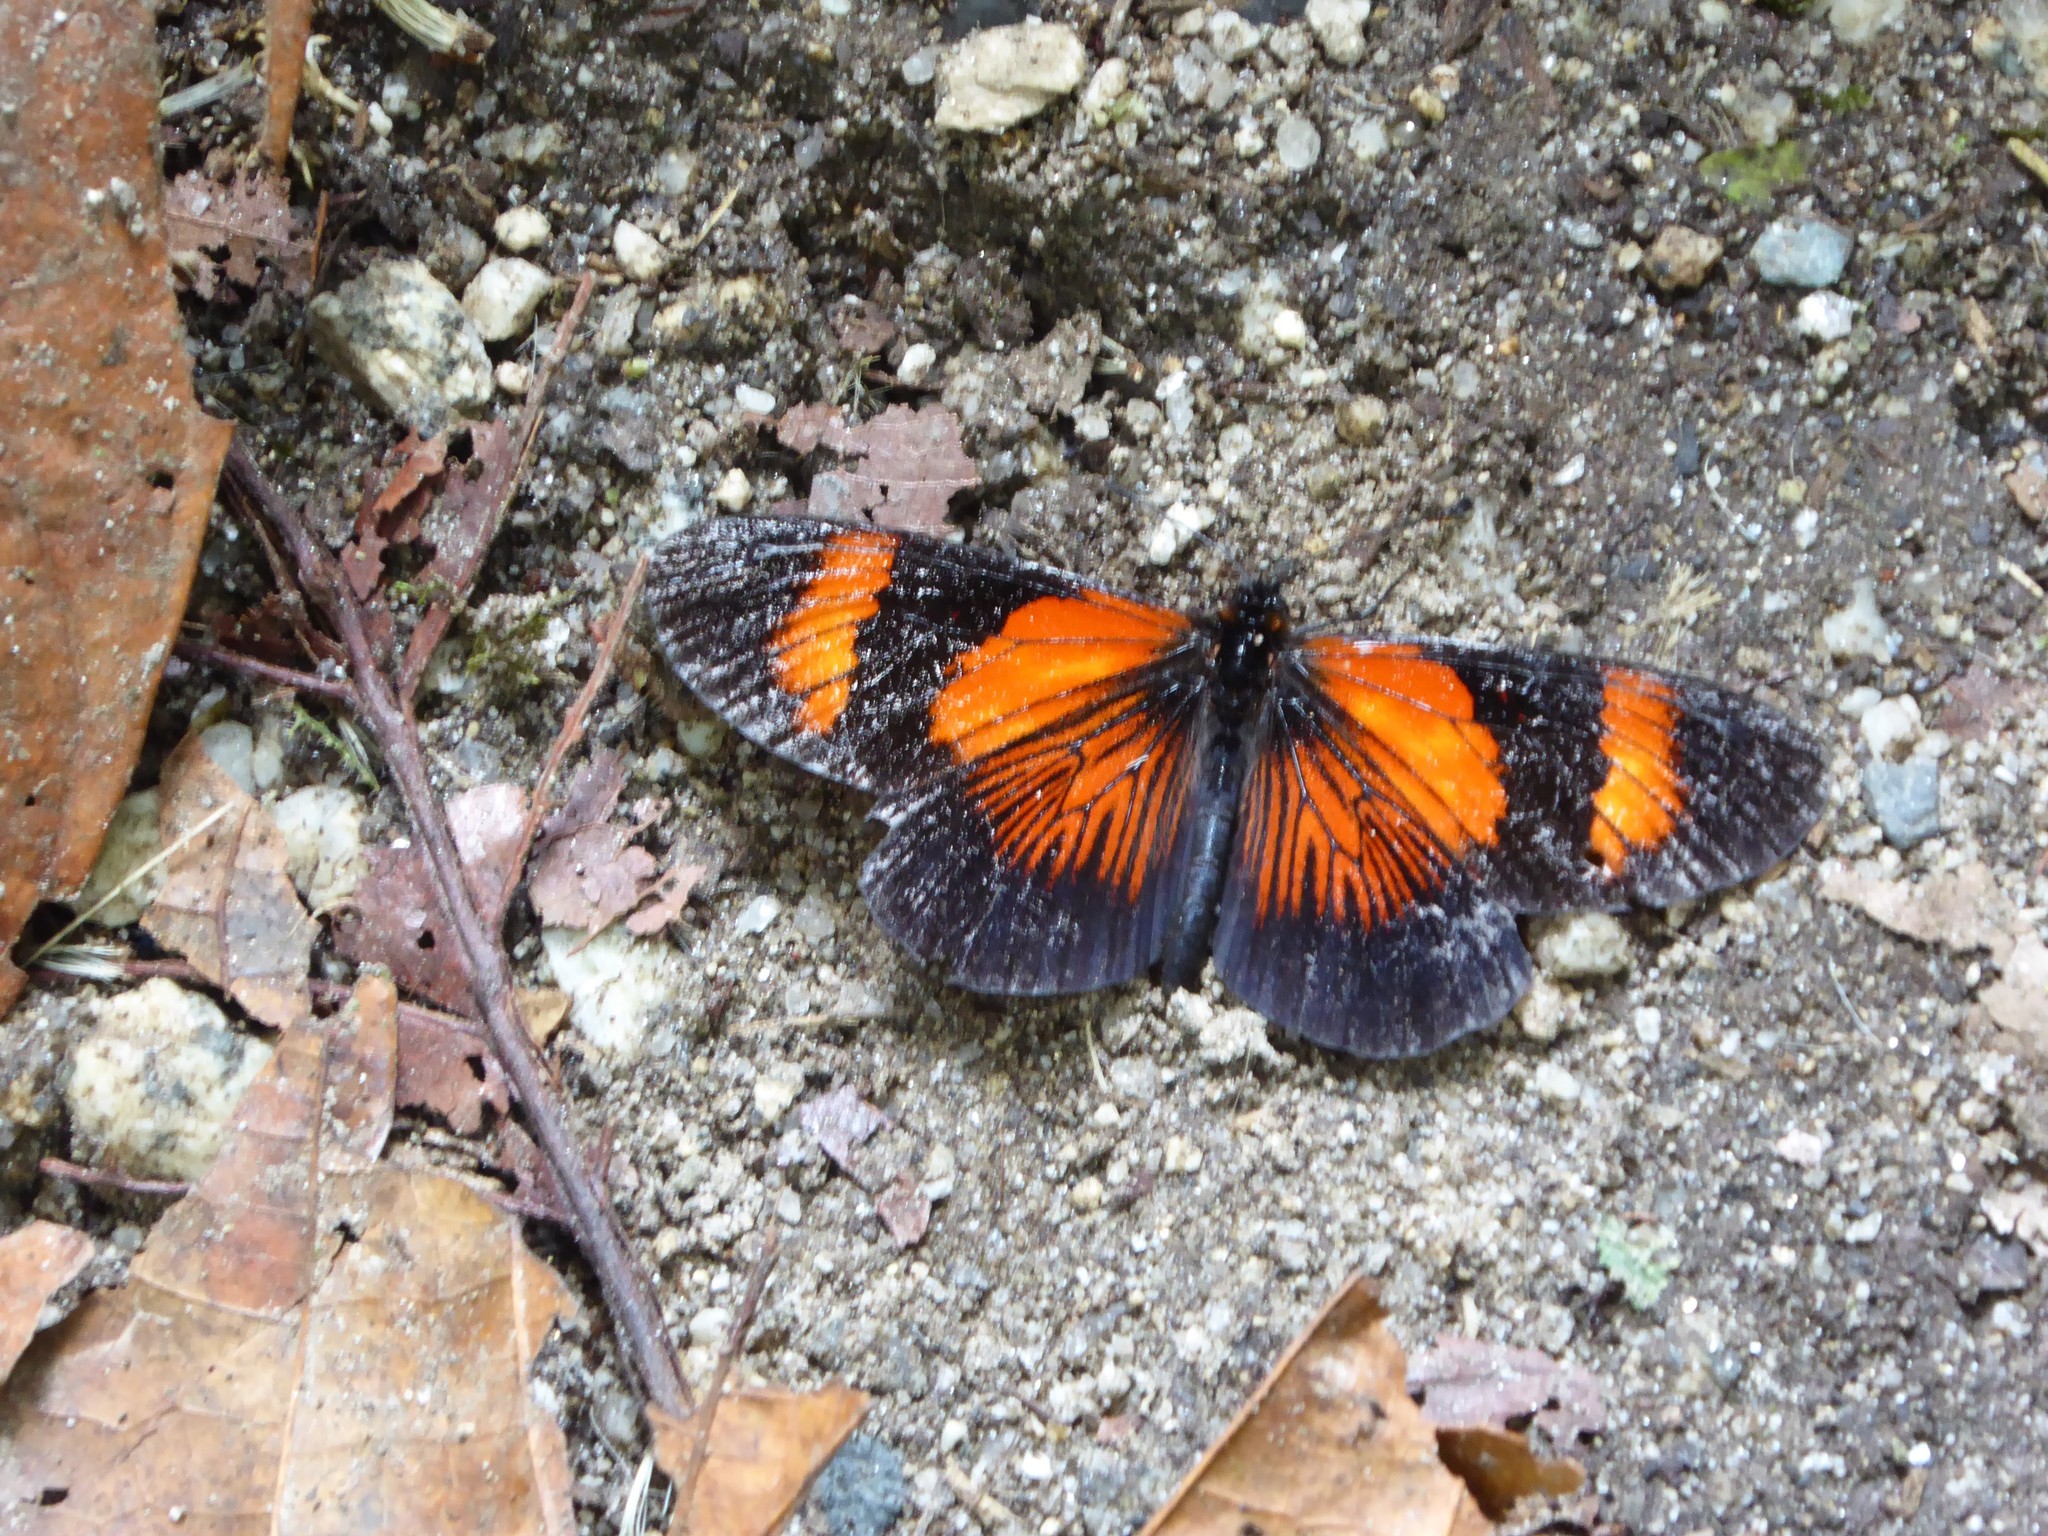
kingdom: Animalia
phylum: Arthropoda
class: Insecta
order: Lepidoptera
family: Nymphalidae
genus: Actinote
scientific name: Actinote negra
